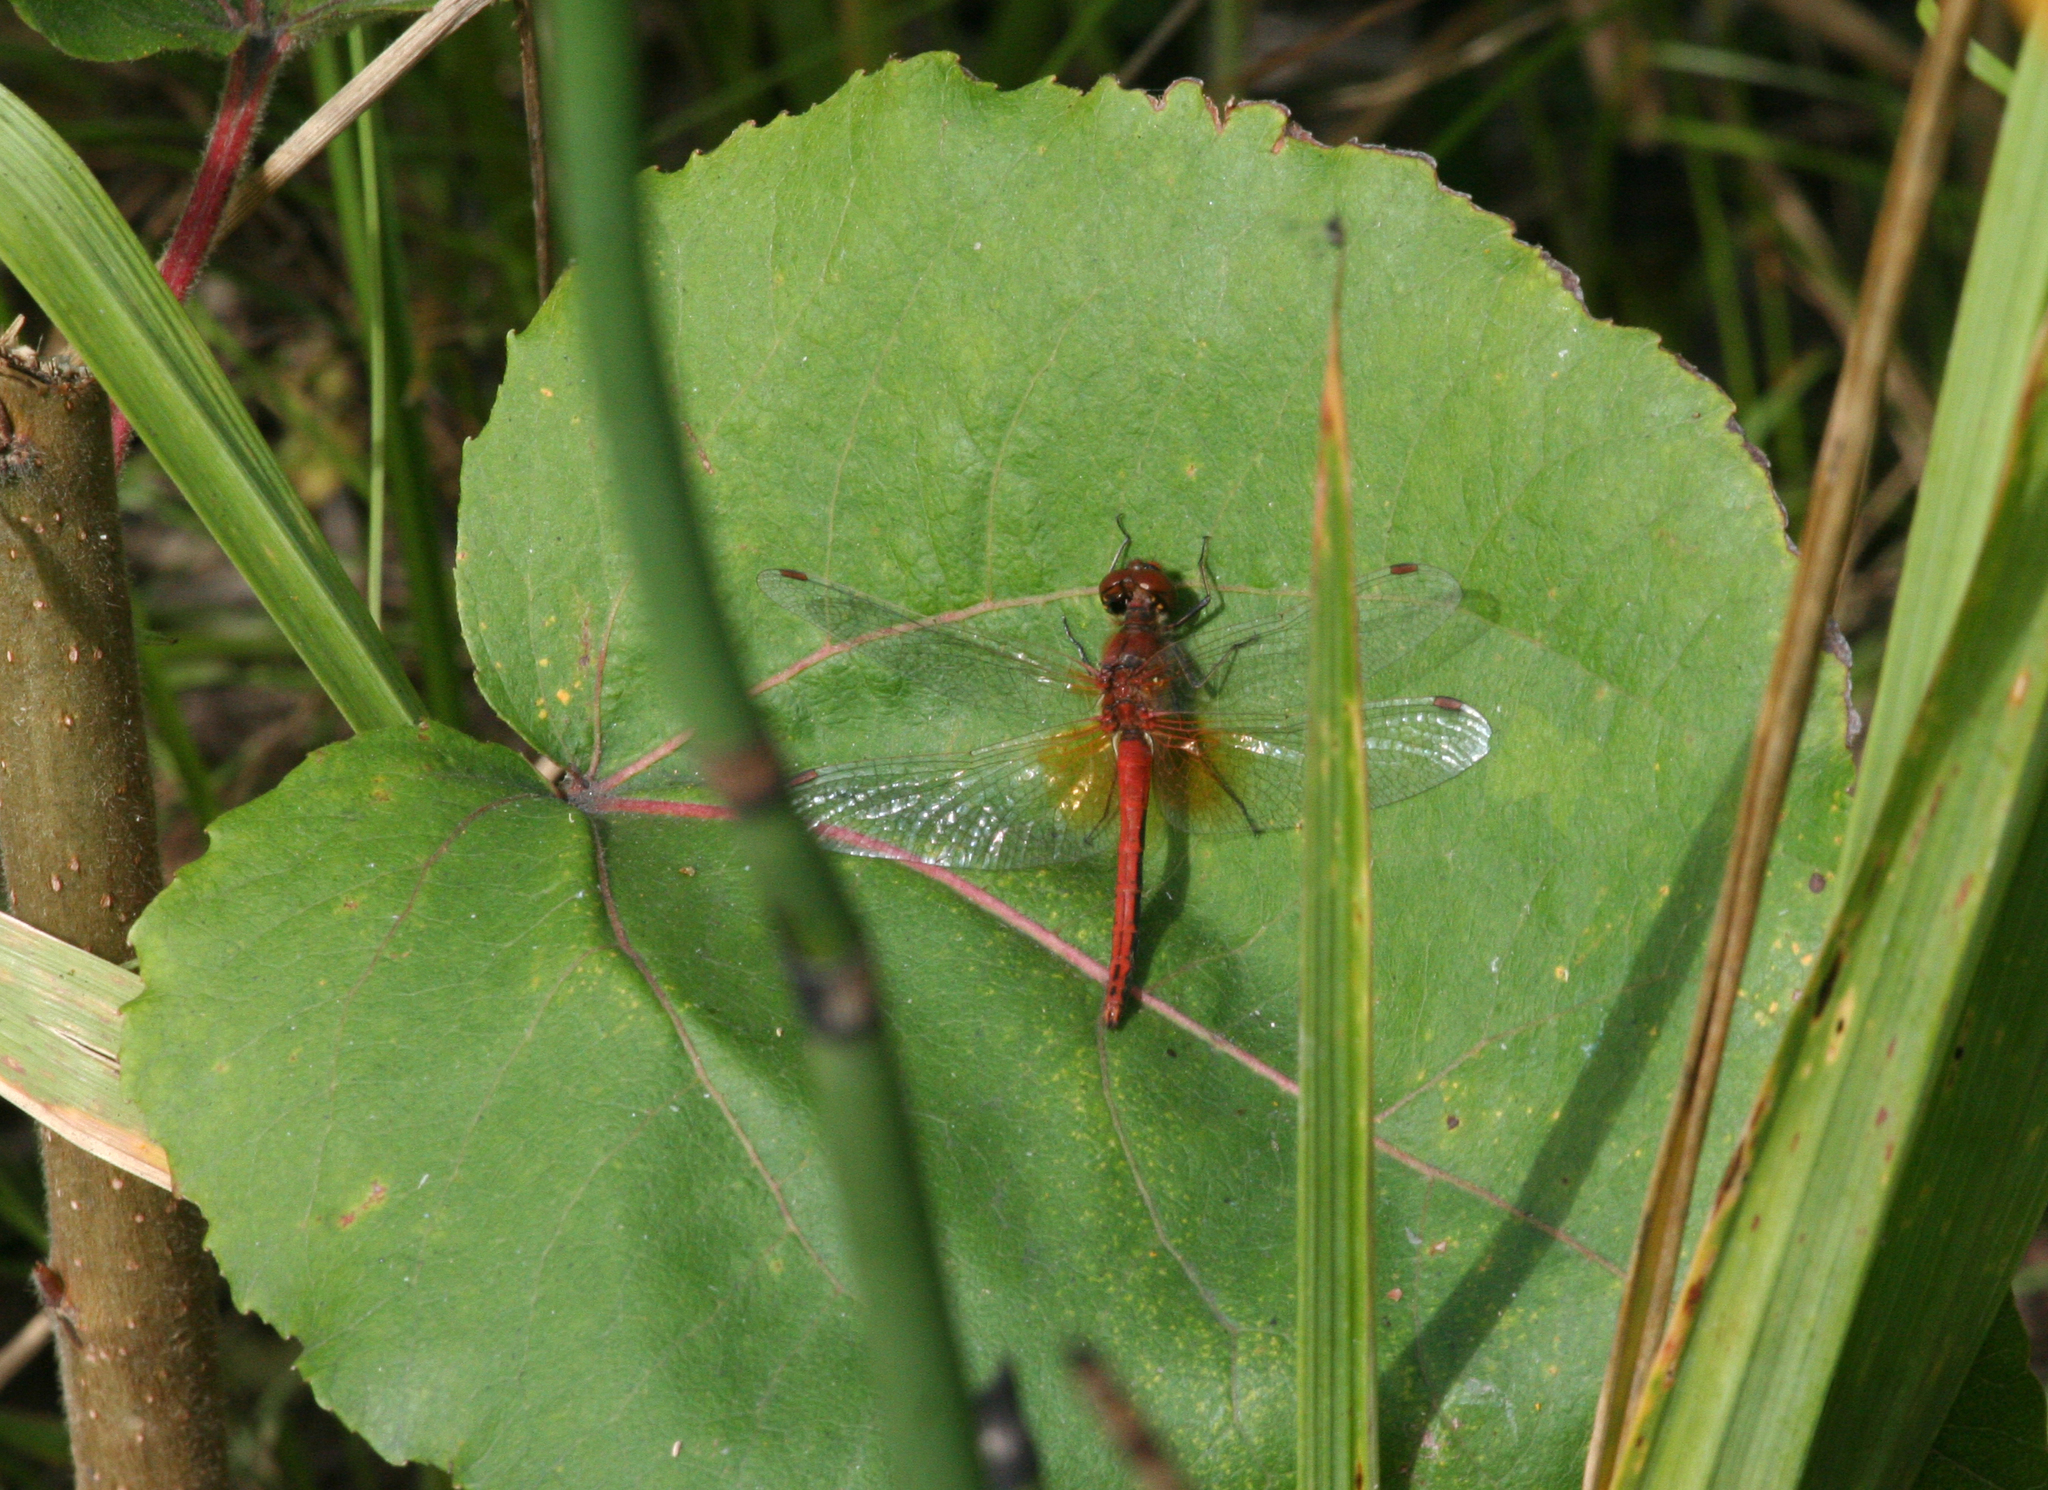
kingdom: Animalia
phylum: Arthropoda
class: Insecta
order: Odonata
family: Libellulidae
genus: Sympetrum
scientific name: Sympetrum flaveolum
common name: Yellow-winged darter
